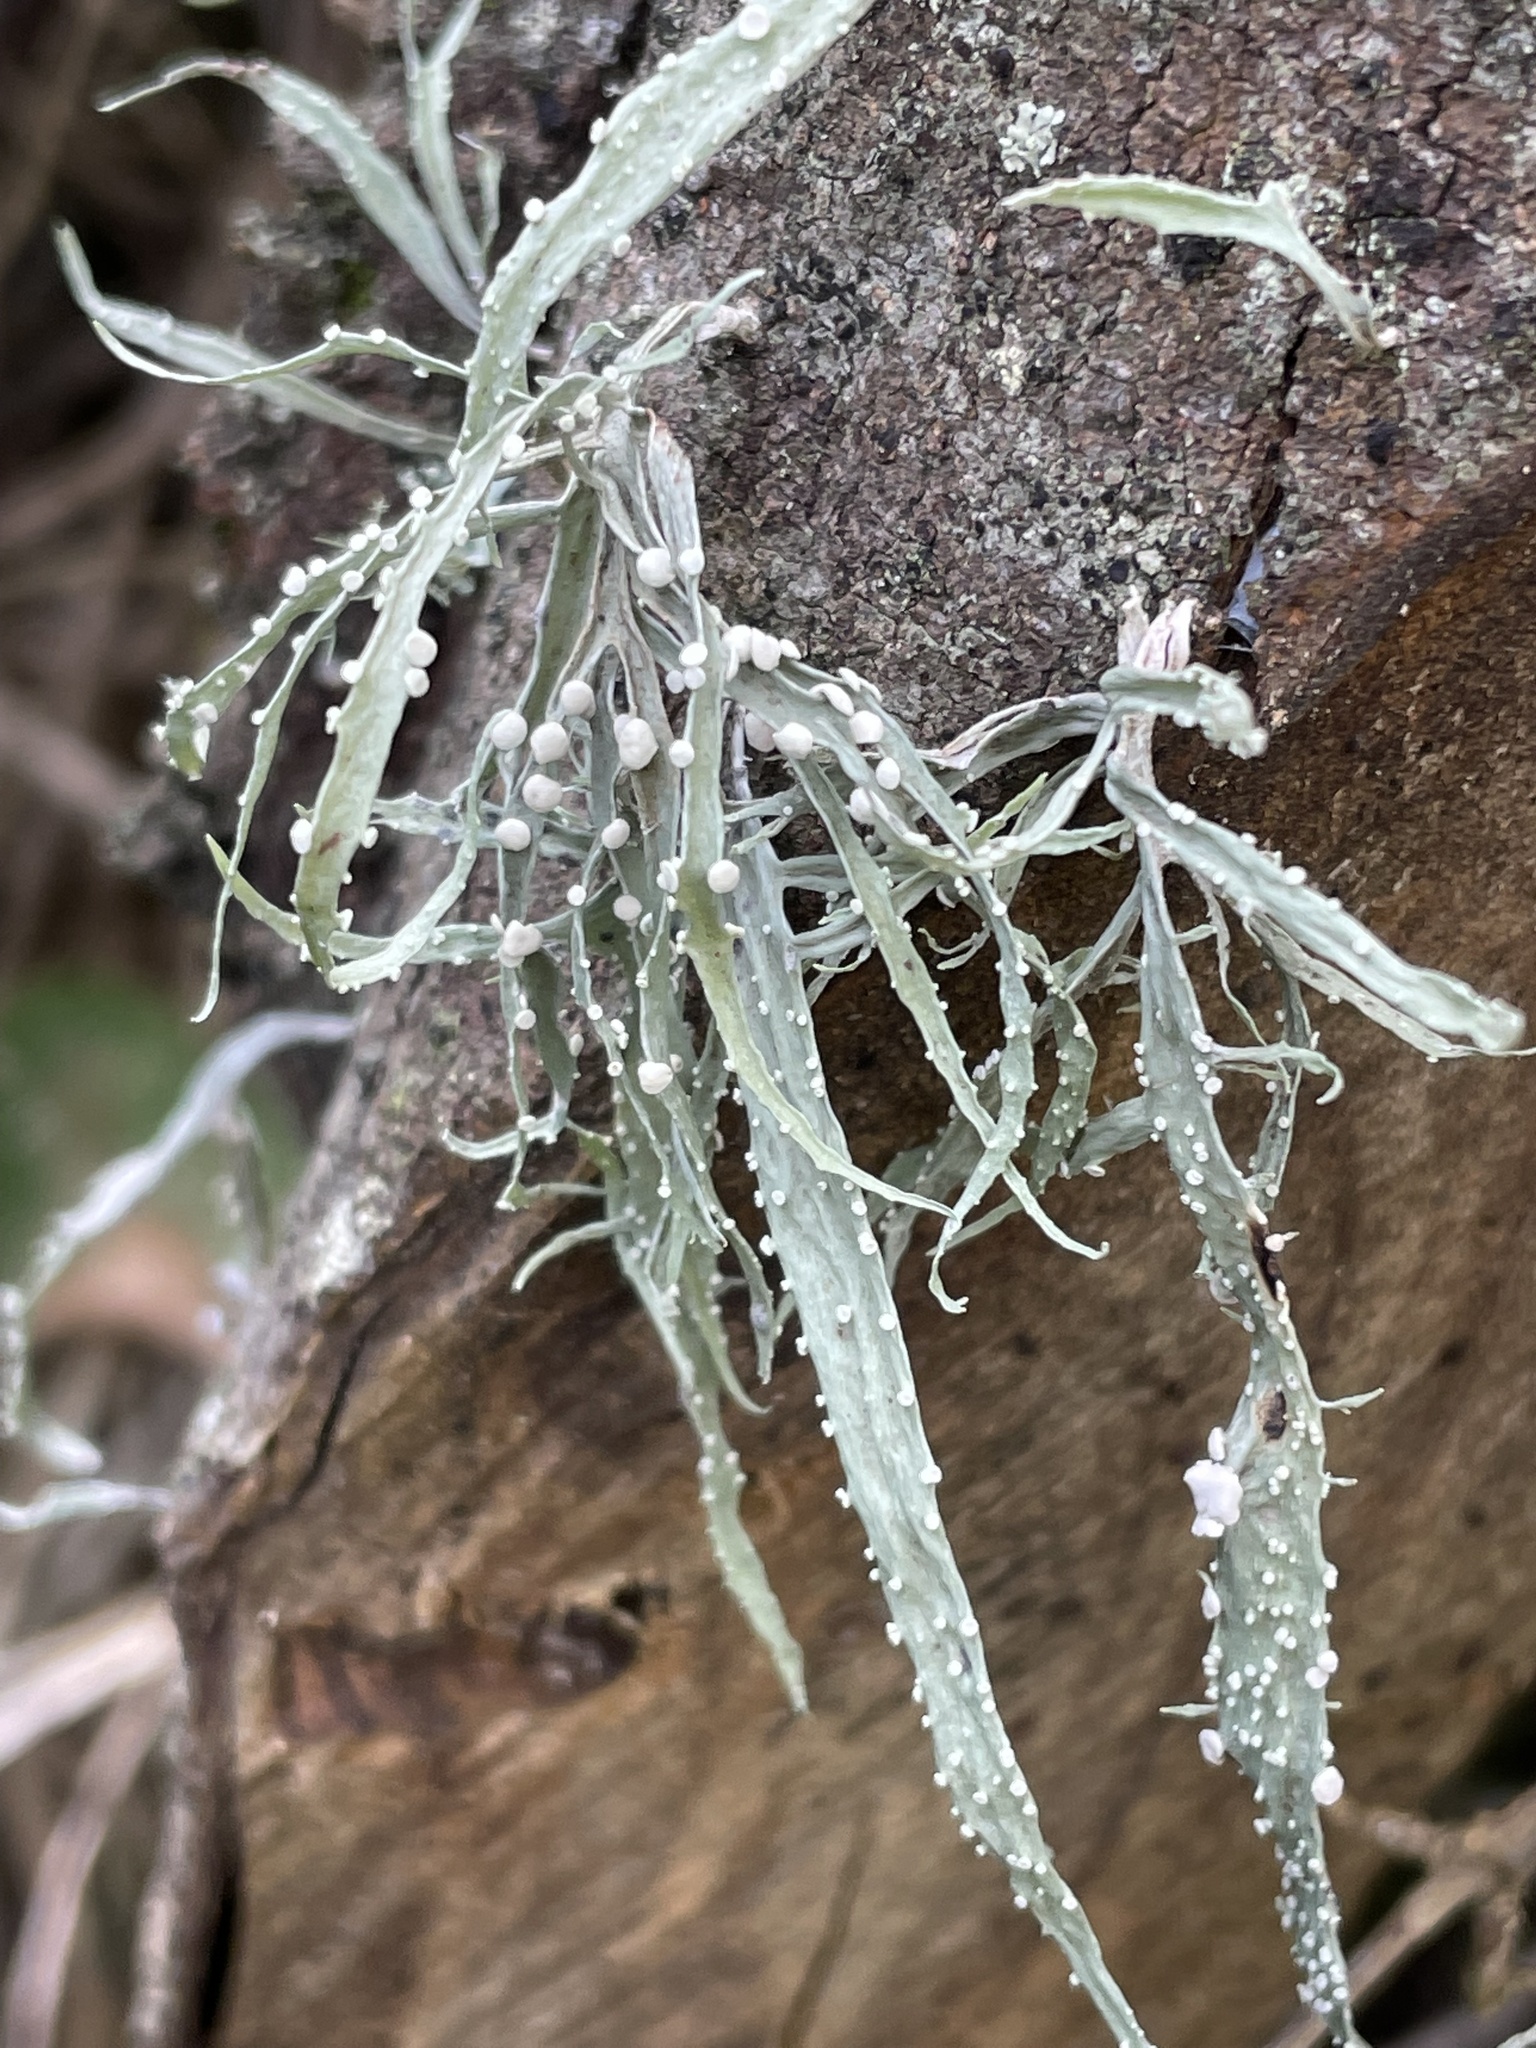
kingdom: Fungi
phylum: Ascomycota
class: Lecanoromycetes
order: Lecanorales
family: Ramalinaceae
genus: Ramalina
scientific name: Ramalina celastri
